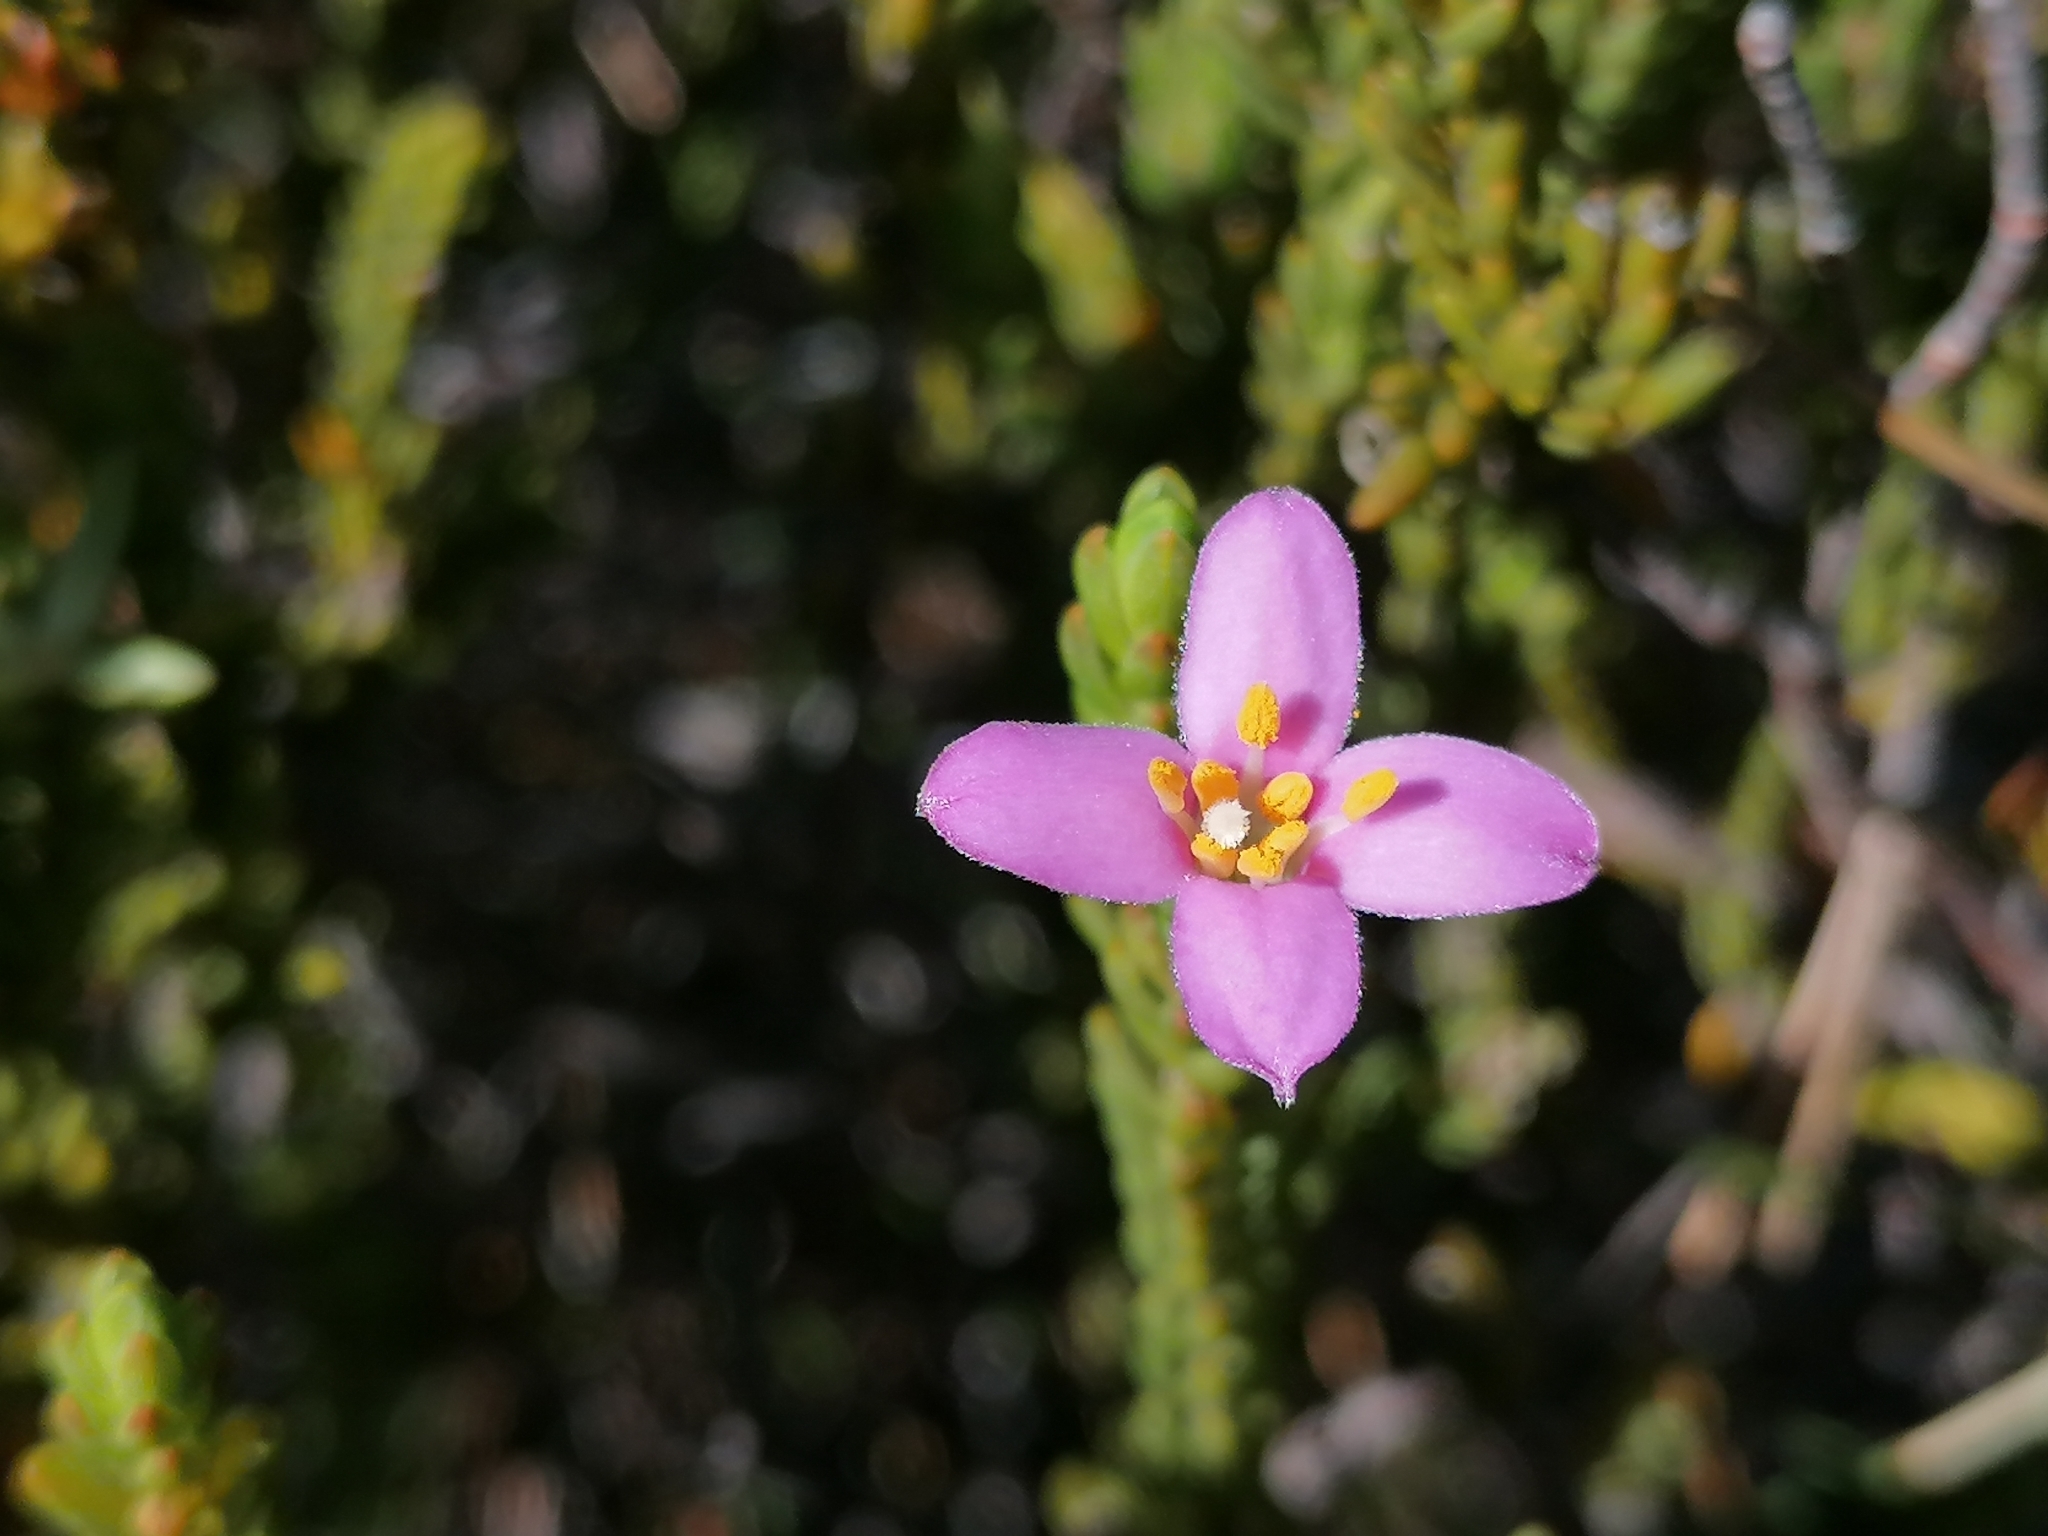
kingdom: Plantae
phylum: Tracheophyta
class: Magnoliopsida
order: Malvales
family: Thymelaeaceae
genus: Lachnaea
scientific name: Lachnaea grandiflora
